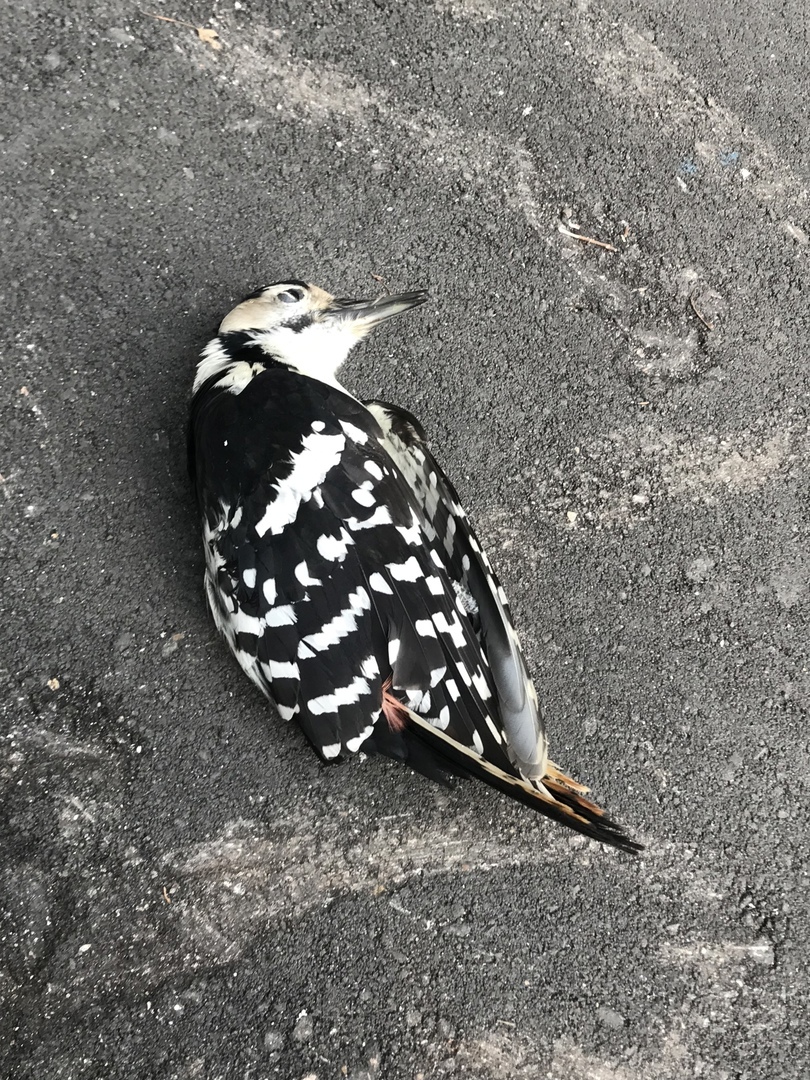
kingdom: Animalia
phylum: Chordata
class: Aves
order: Piciformes
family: Picidae
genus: Dendrocopos
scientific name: Dendrocopos major
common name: Great spotted woodpecker
